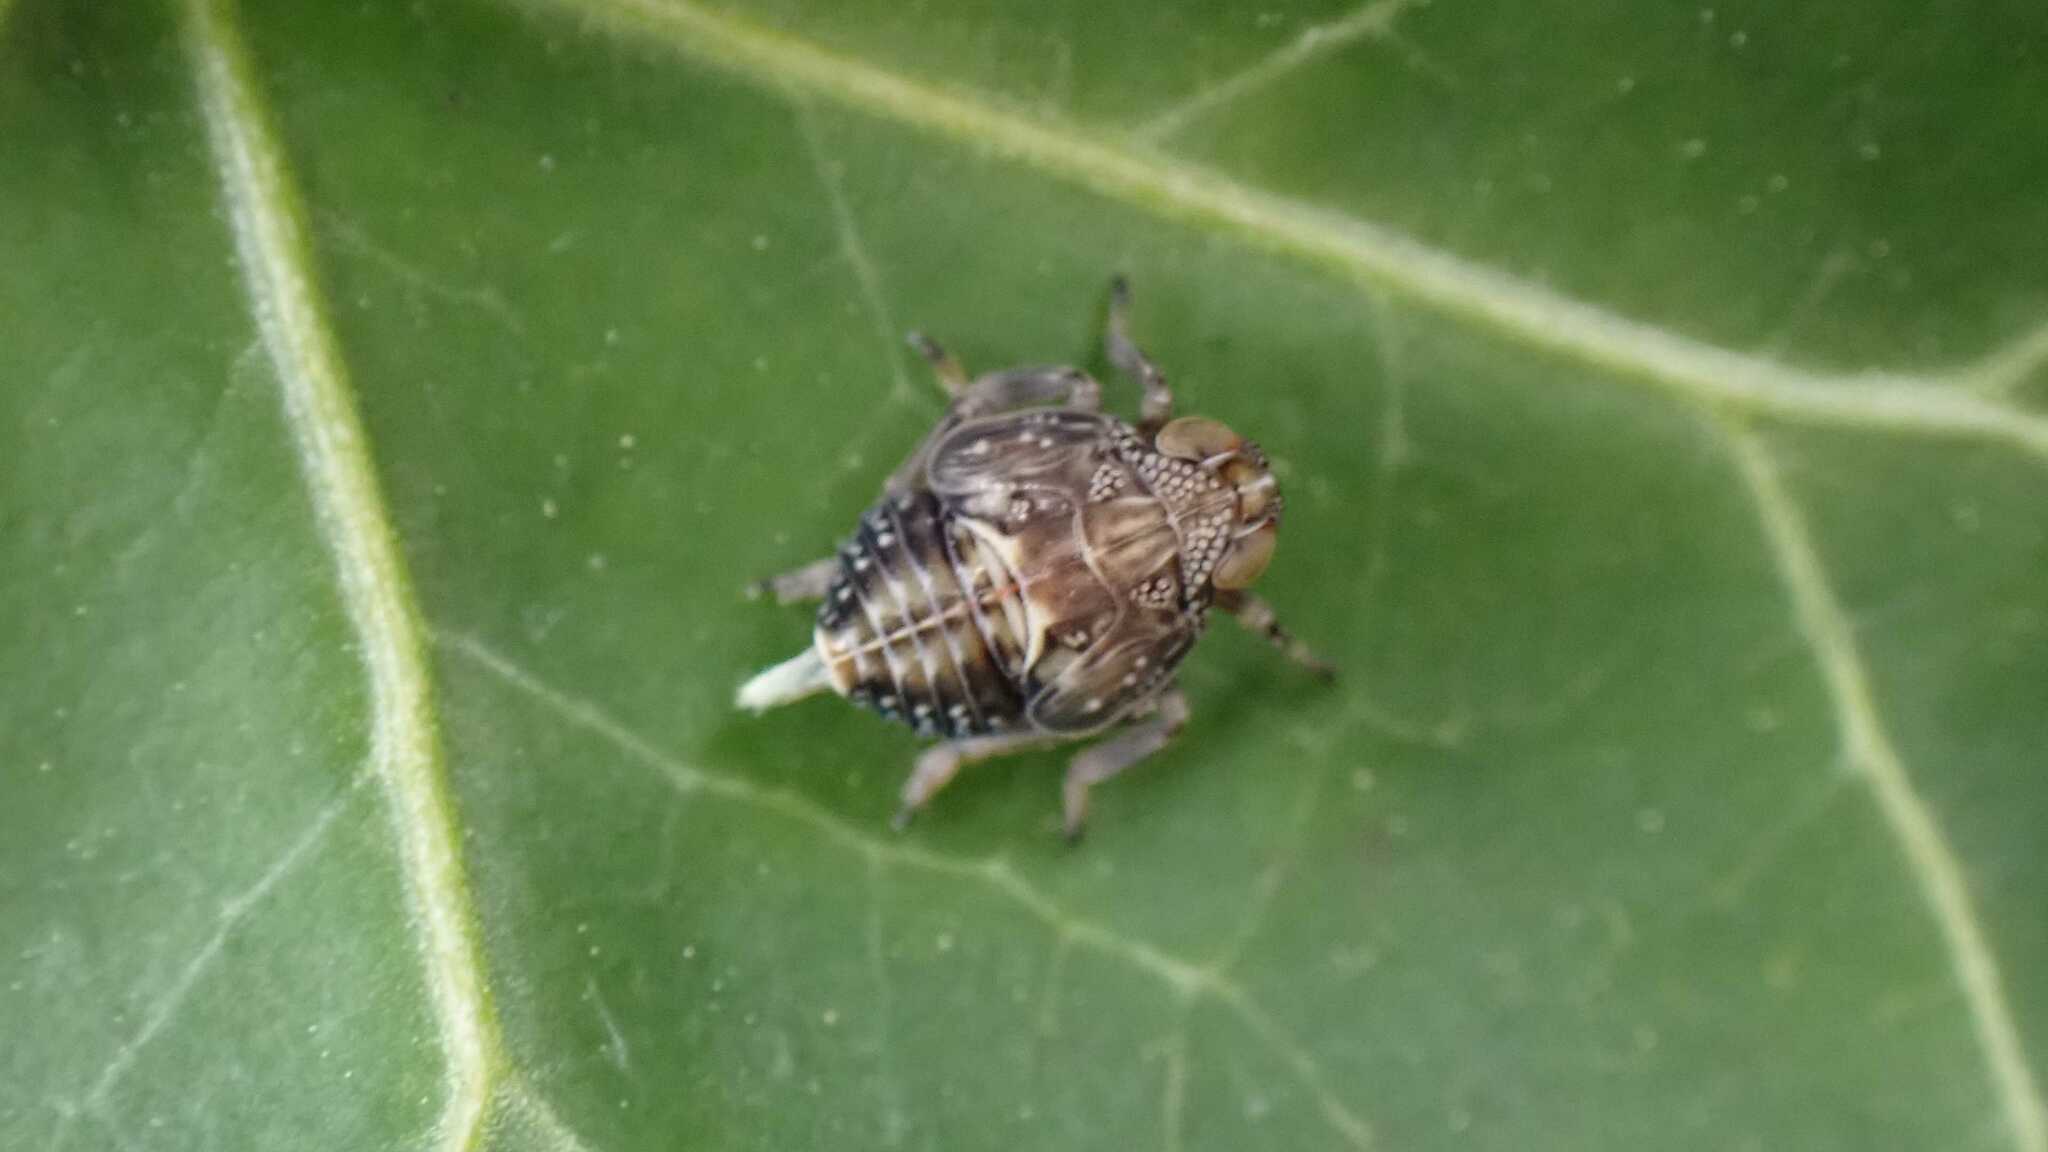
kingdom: Animalia
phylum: Arthropoda
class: Insecta
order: Hemiptera
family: Issidae
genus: Issus
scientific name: Issus coleoptratus
